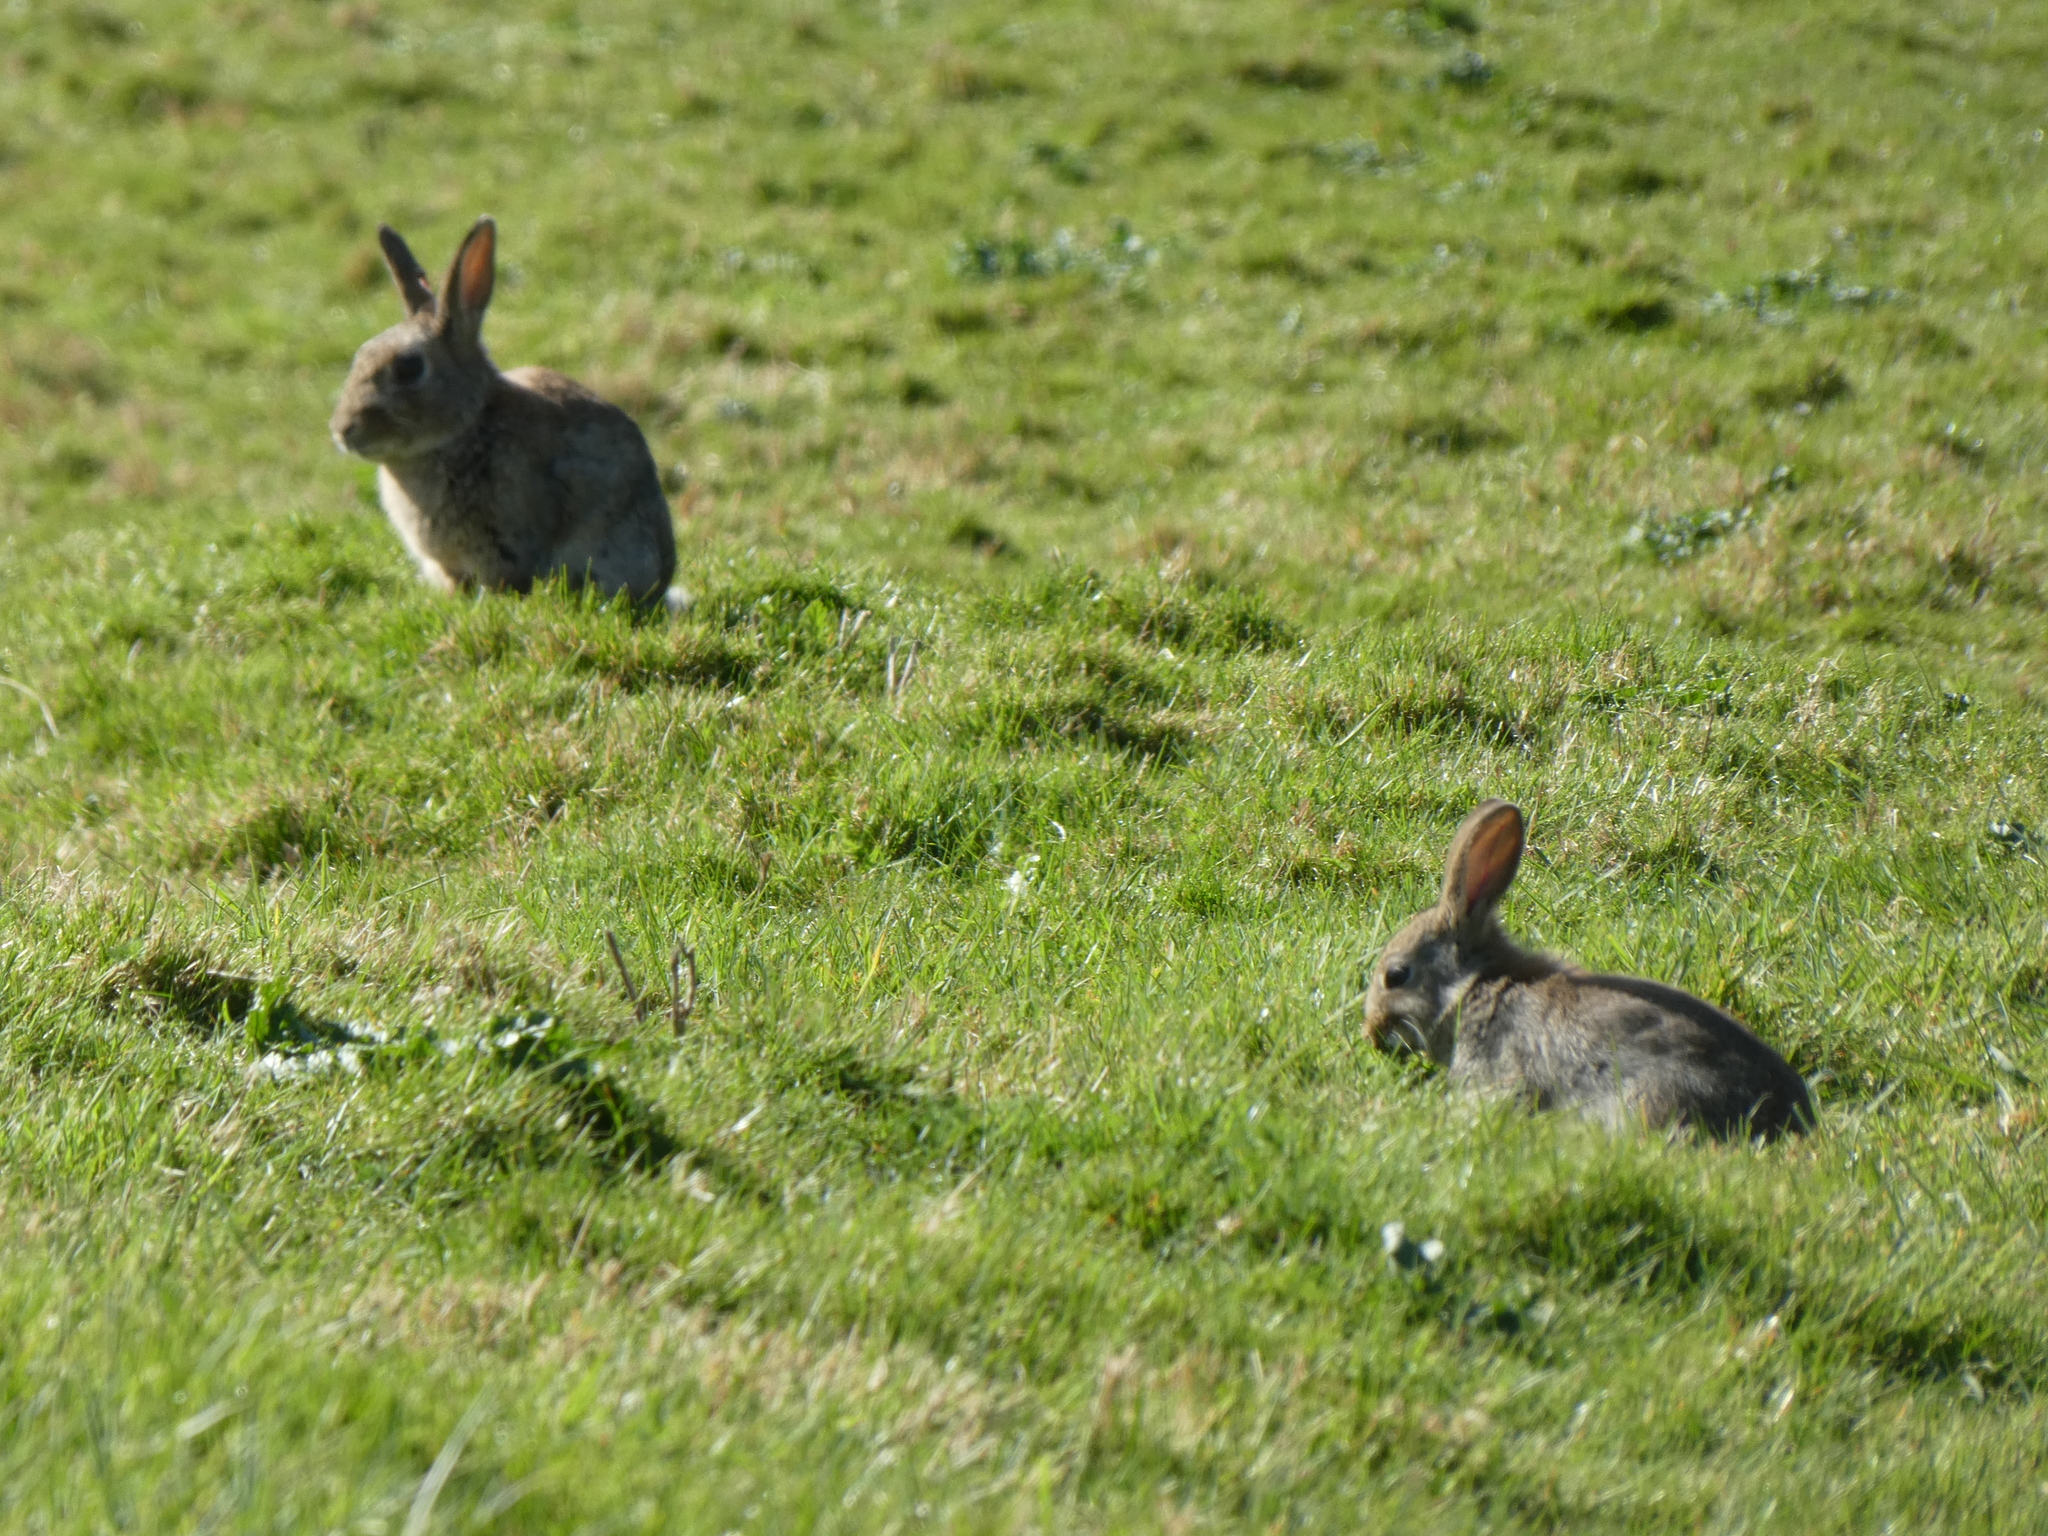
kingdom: Animalia
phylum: Chordata
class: Mammalia
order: Lagomorpha
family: Leporidae
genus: Oryctolagus
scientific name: Oryctolagus cuniculus
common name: European rabbit
